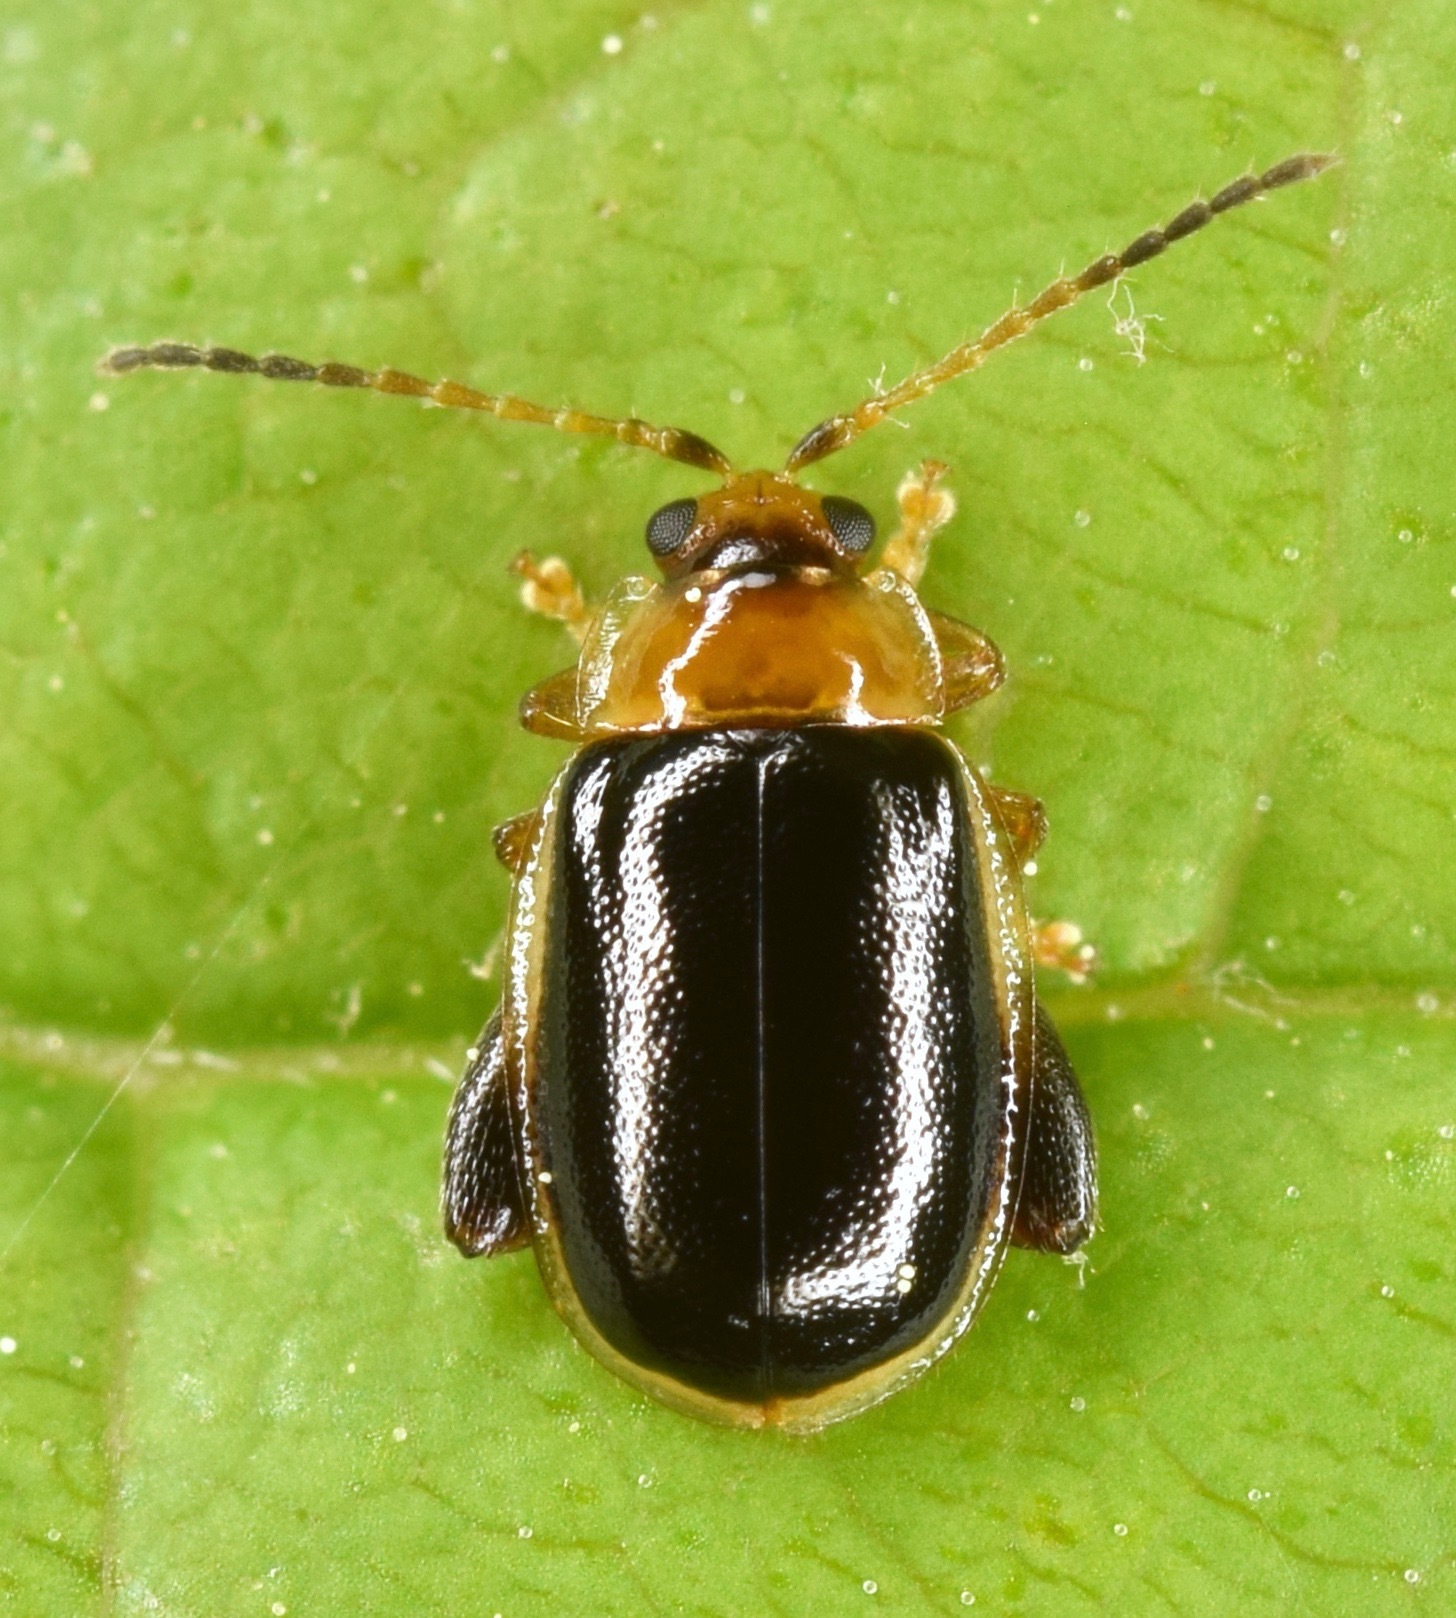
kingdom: Animalia
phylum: Arthropoda
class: Insecta
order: Coleoptera
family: Chrysomelidae
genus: Capraita
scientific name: Capraita circumdata
